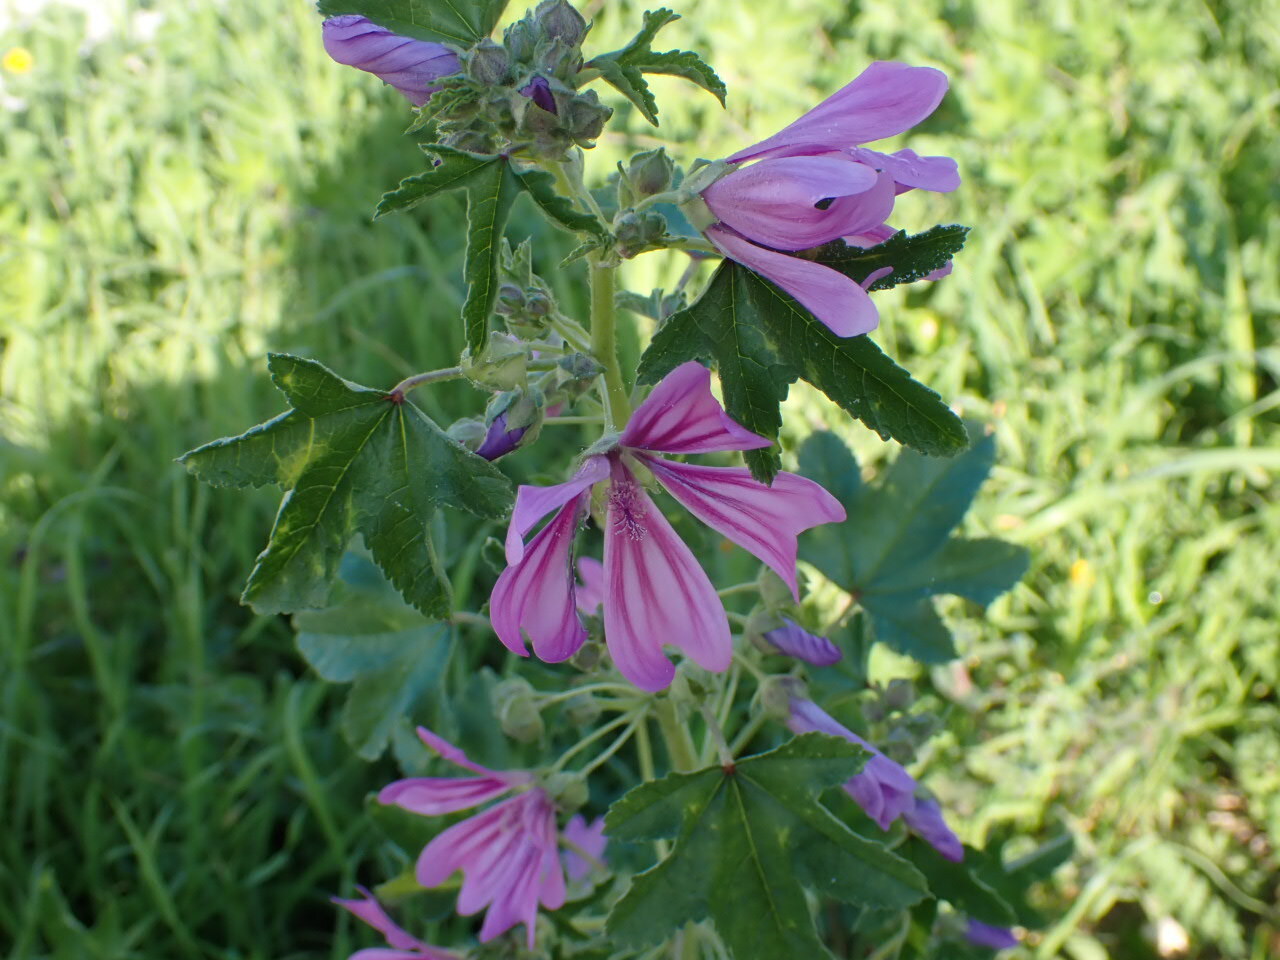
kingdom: Plantae
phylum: Tracheophyta
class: Magnoliopsida
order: Malvales
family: Malvaceae
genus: Malva
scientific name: Malva sylvestris
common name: Common mallow
